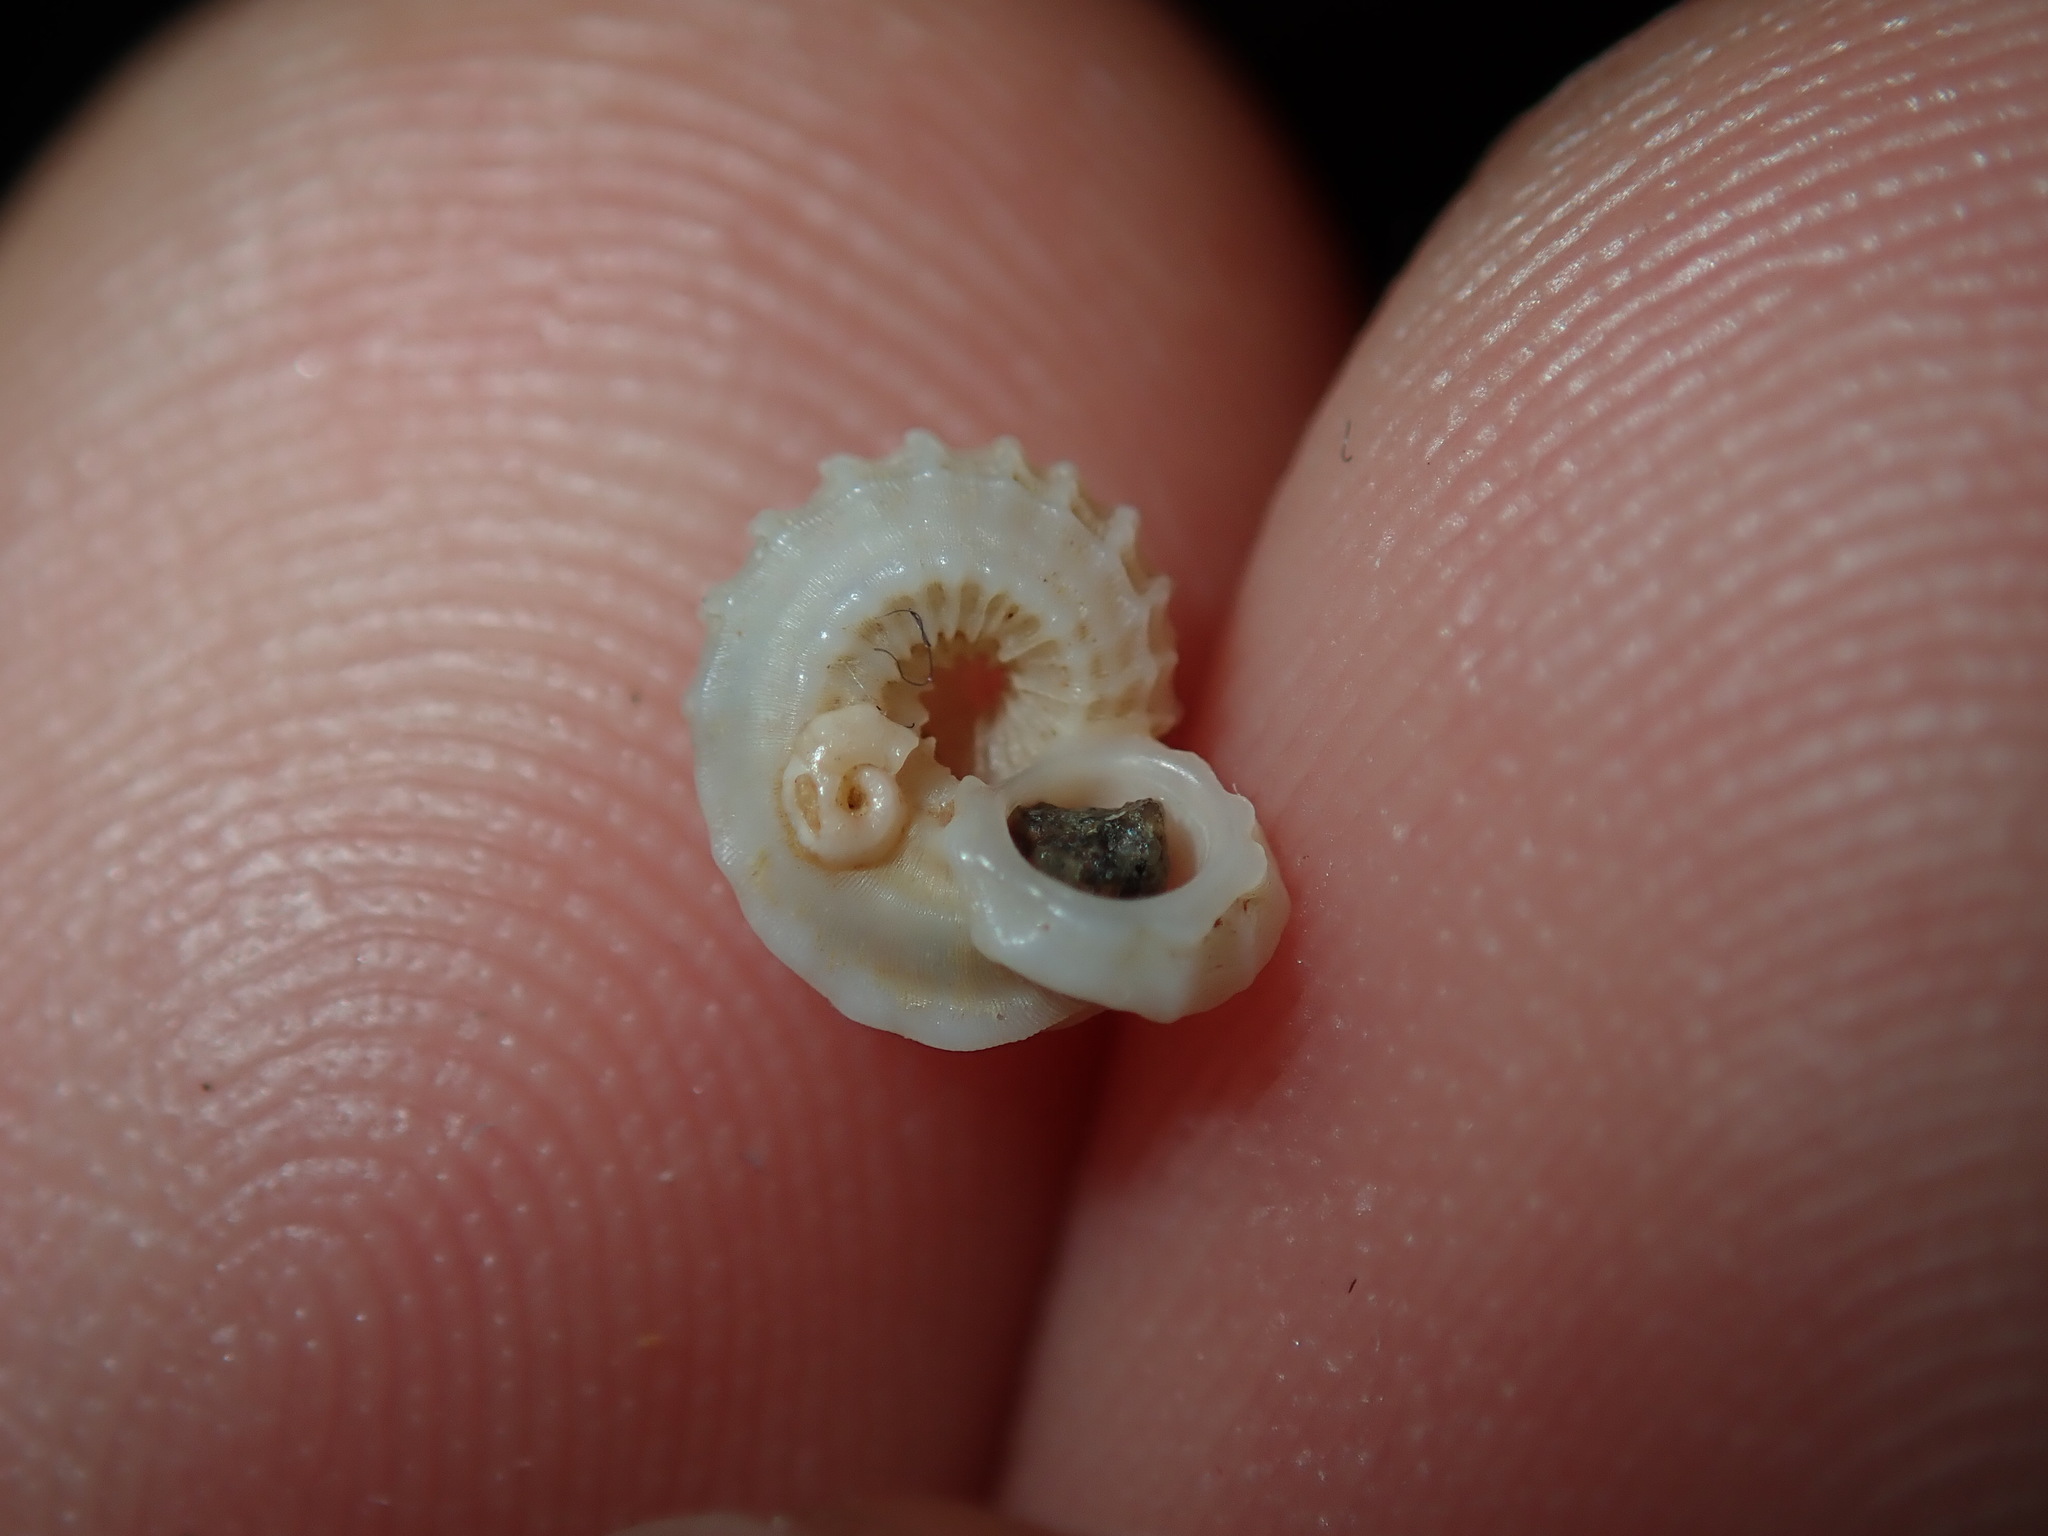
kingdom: Animalia
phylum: Mollusca
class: Gastropoda
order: Trochida
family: Liotiidae
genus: Austroliotia
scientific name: Austroliotia botanica
